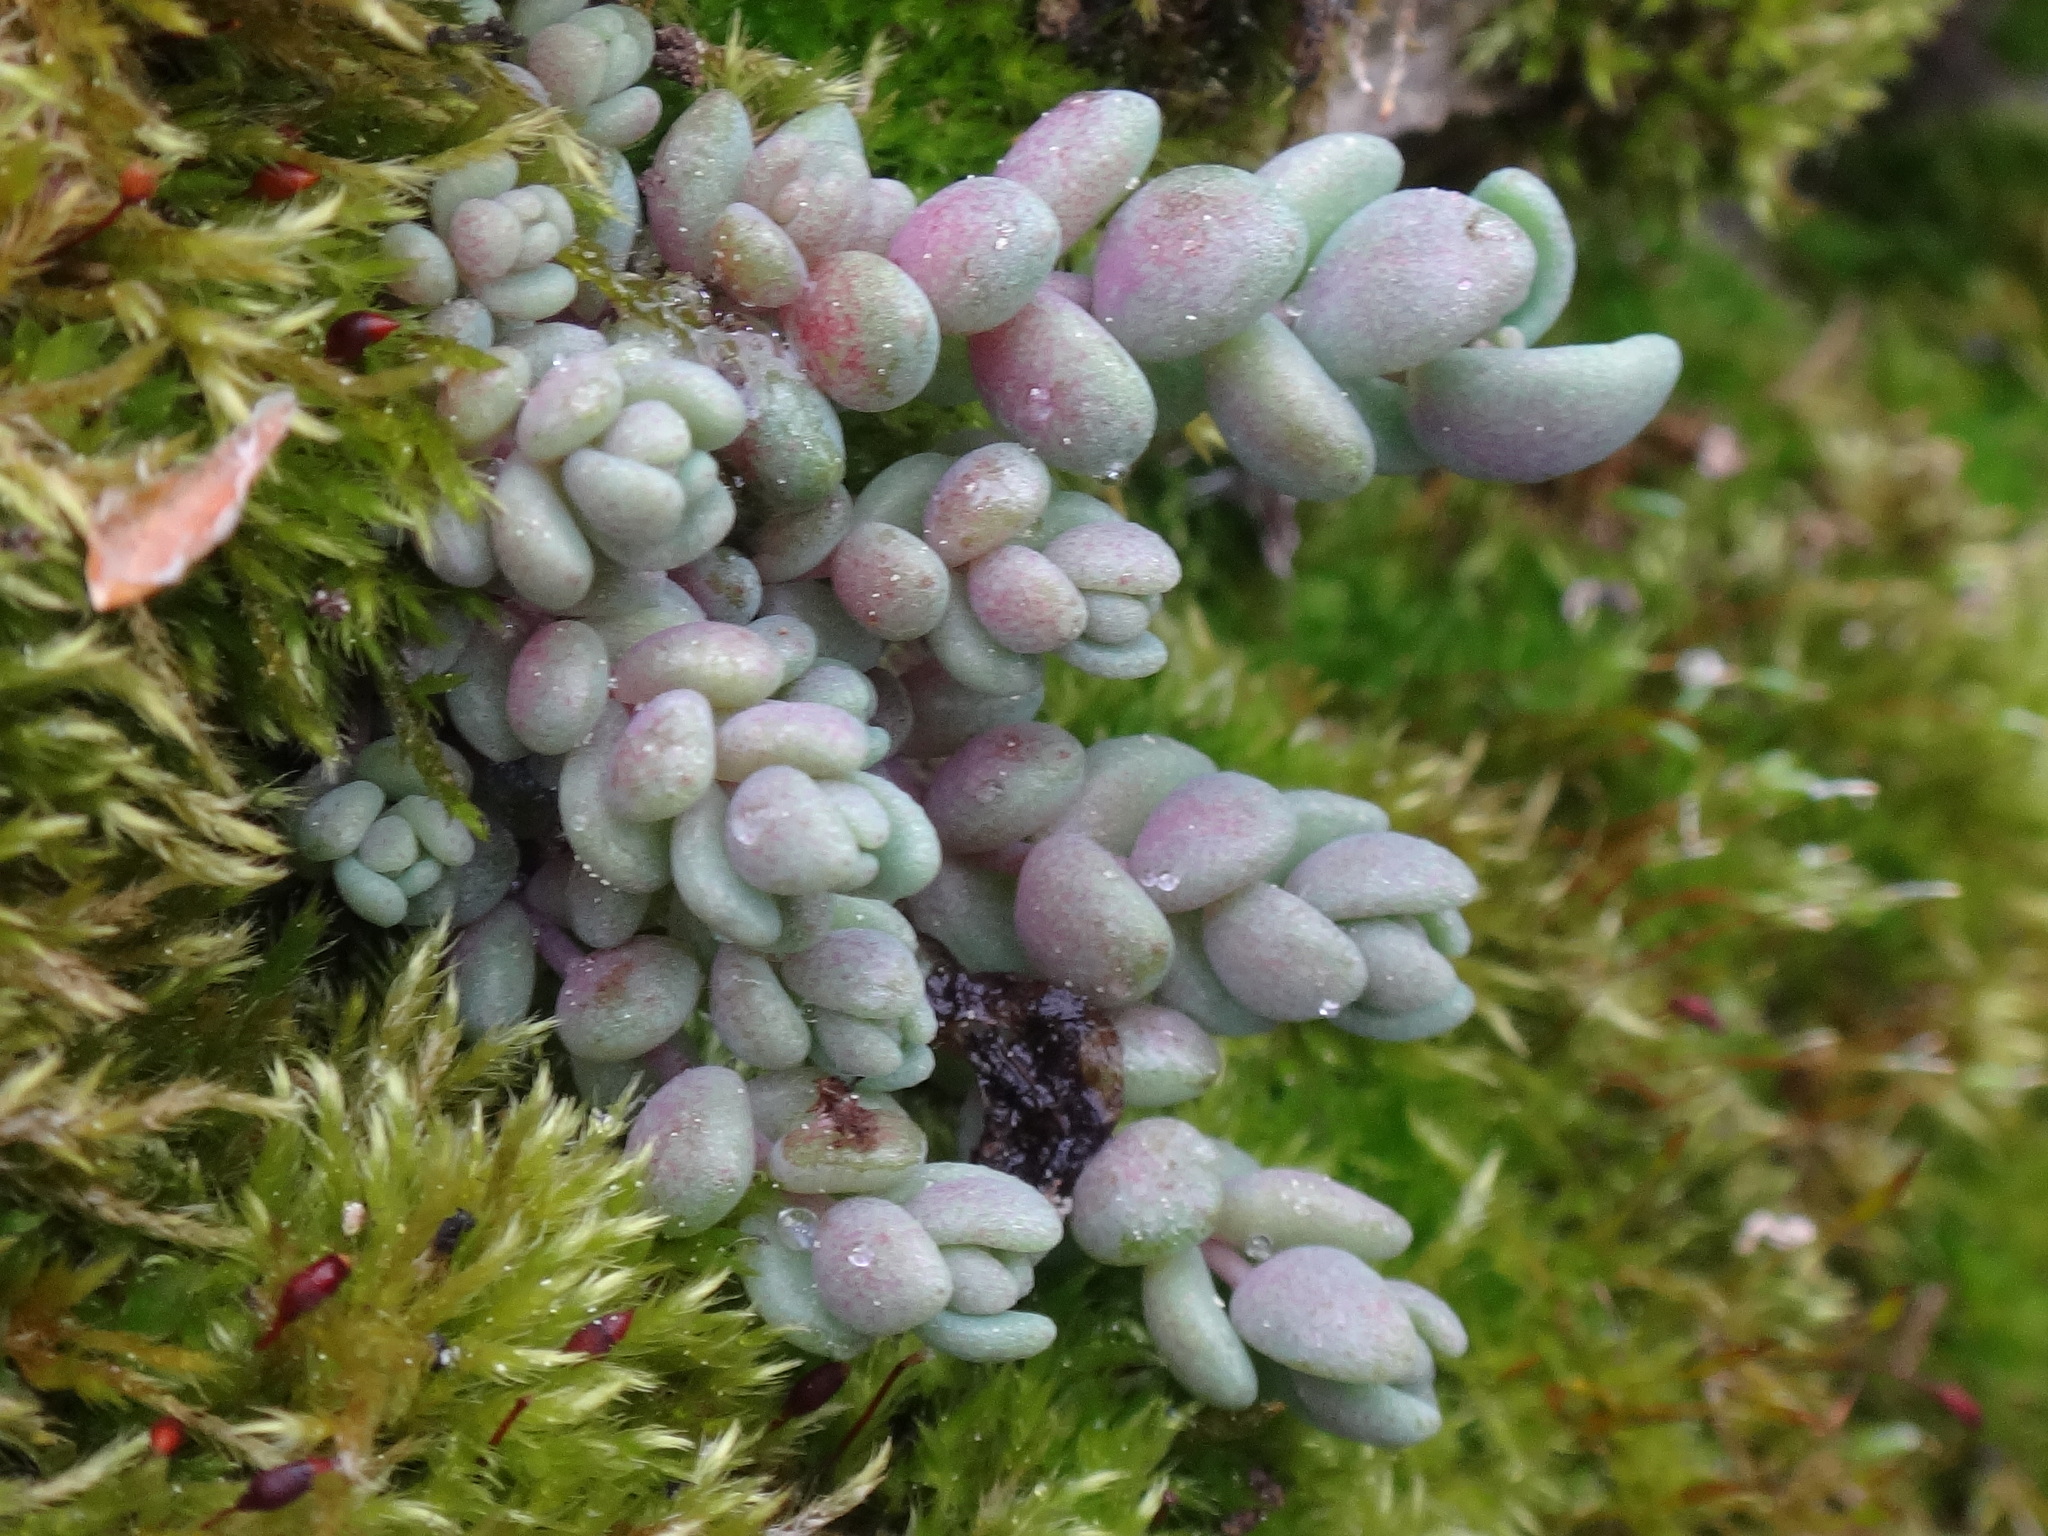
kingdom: Plantae
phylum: Tracheophyta
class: Magnoliopsida
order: Saxifragales
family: Crassulaceae
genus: Sedum
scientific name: Sedum dasyphyllum
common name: Thick-leaf stonecrop
